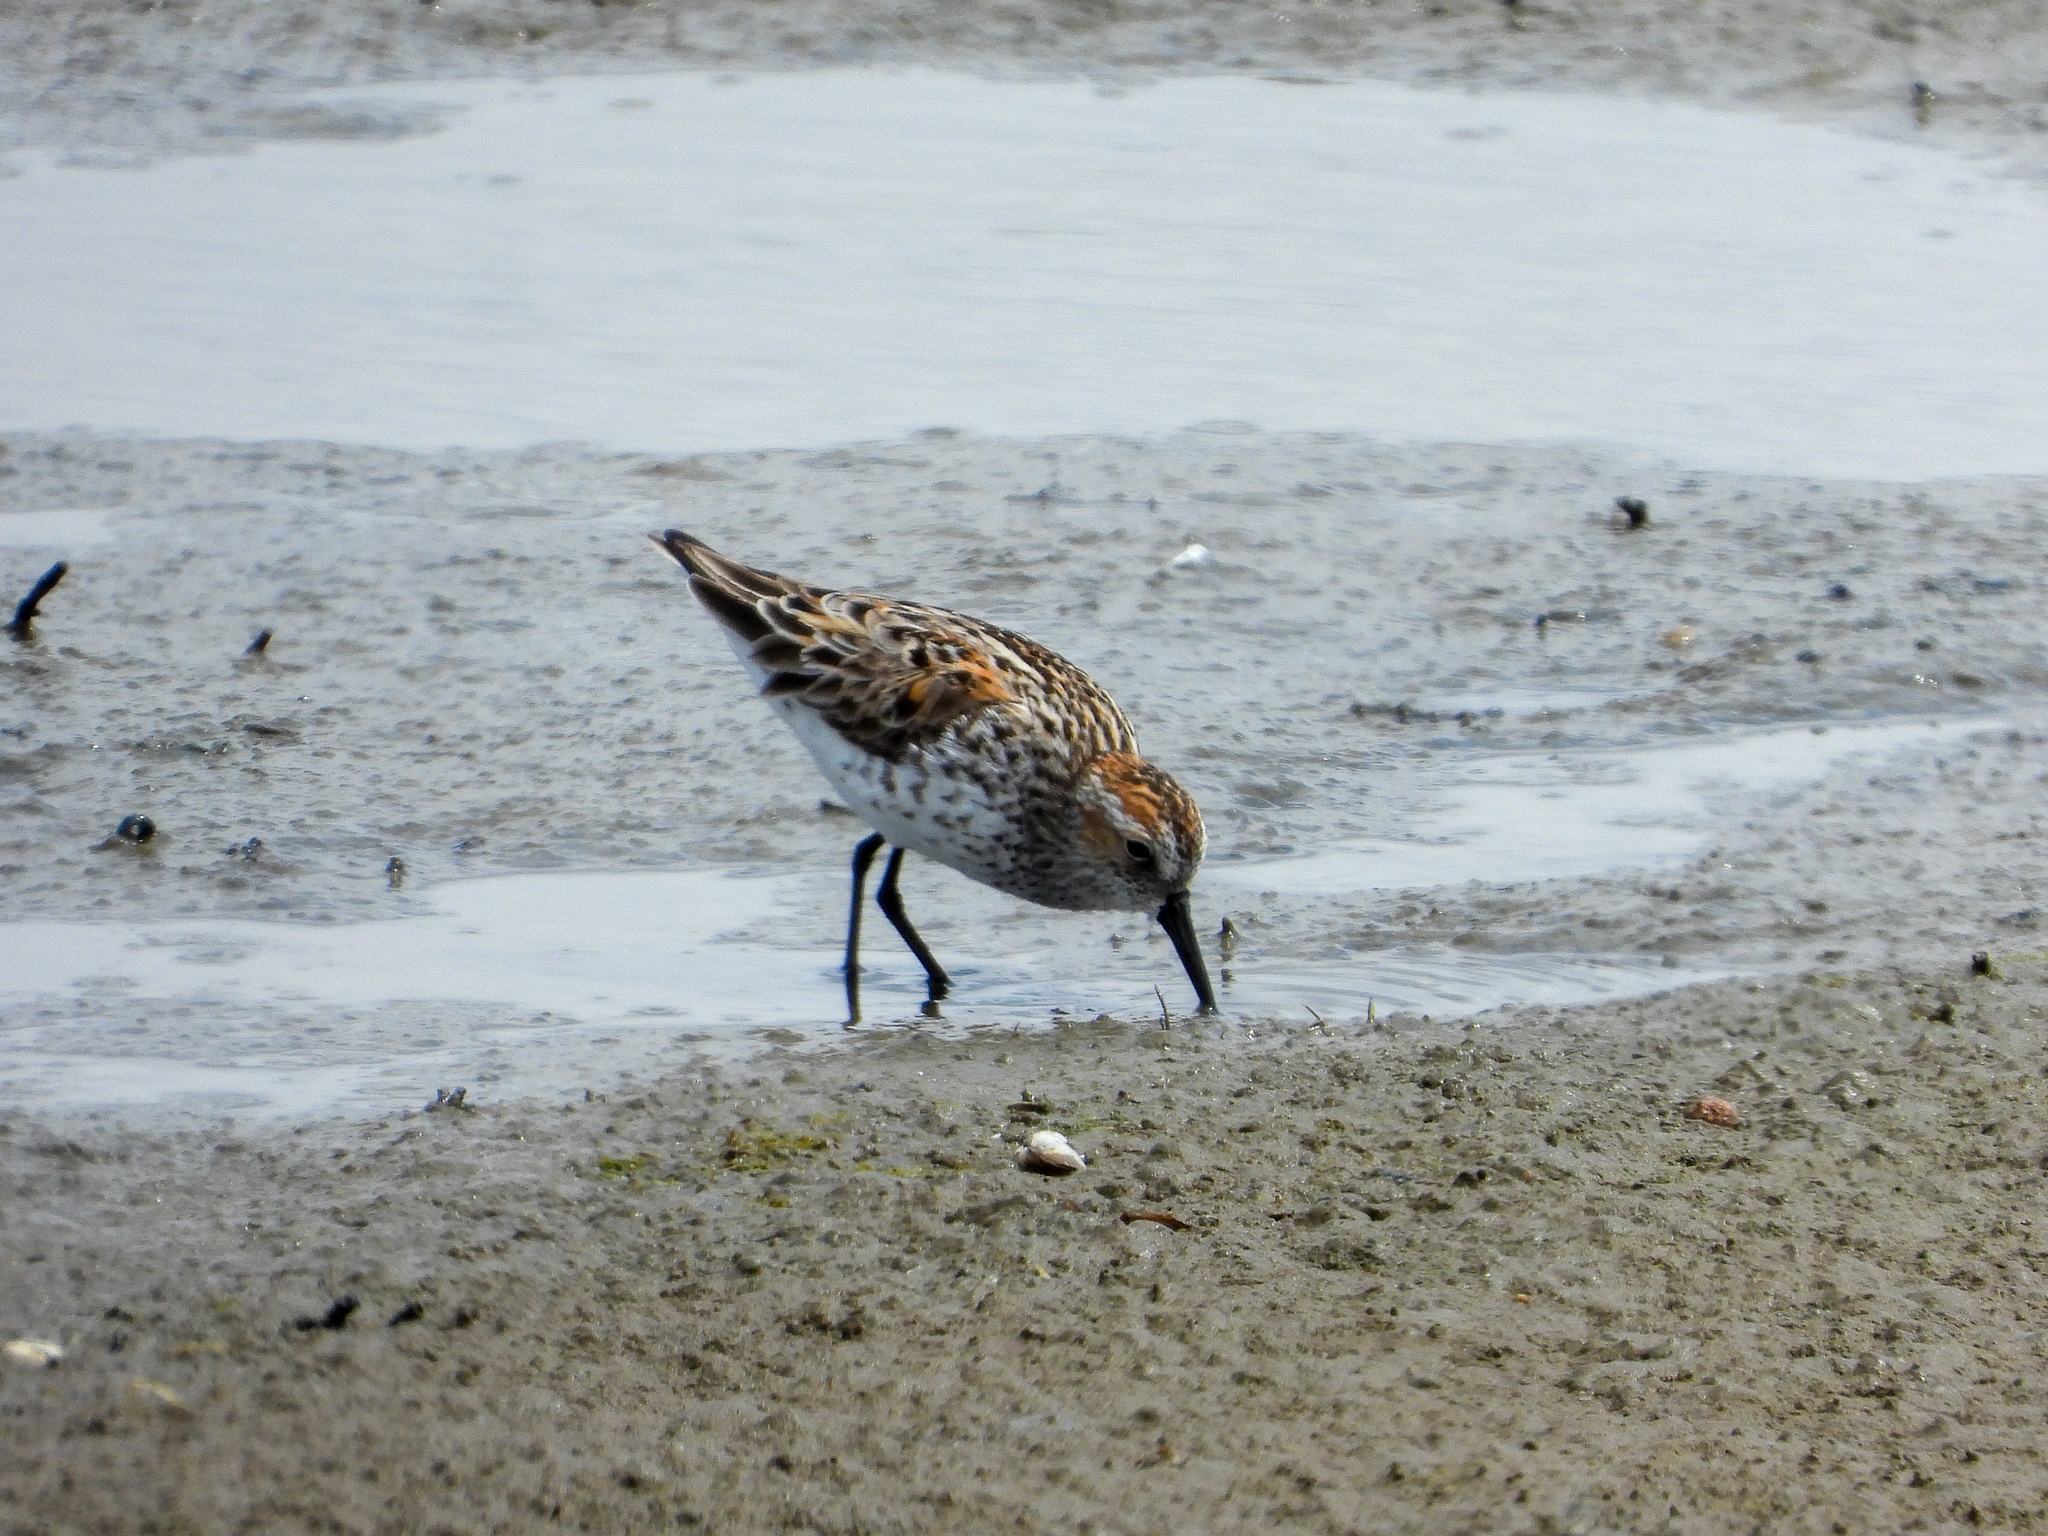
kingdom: Animalia
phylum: Chordata
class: Aves
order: Charadriiformes
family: Scolopacidae
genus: Calidris
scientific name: Calidris mauri
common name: Western sandpiper
